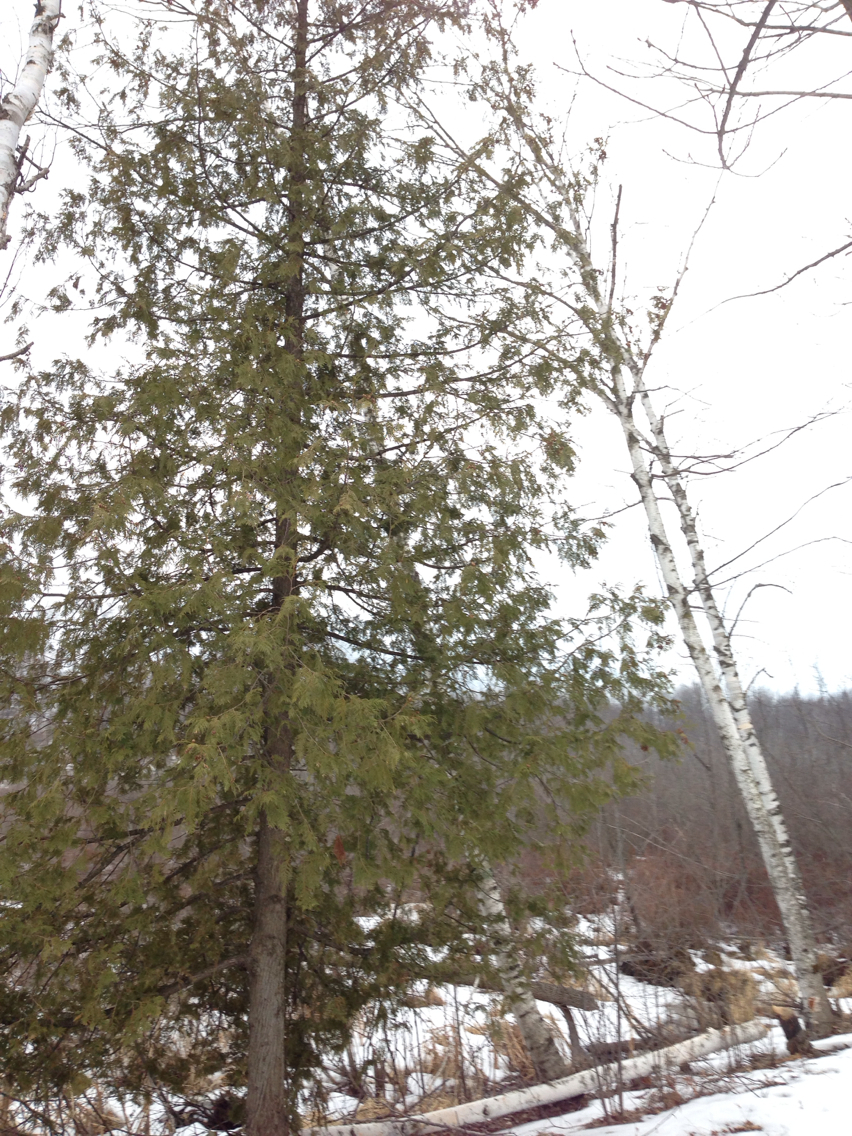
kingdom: Plantae
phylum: Tracheophyta
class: Pinopsida
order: Pinales
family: Cupressaceae
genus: Thuja
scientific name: Thuja occidentalis
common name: Northern white-cedar
